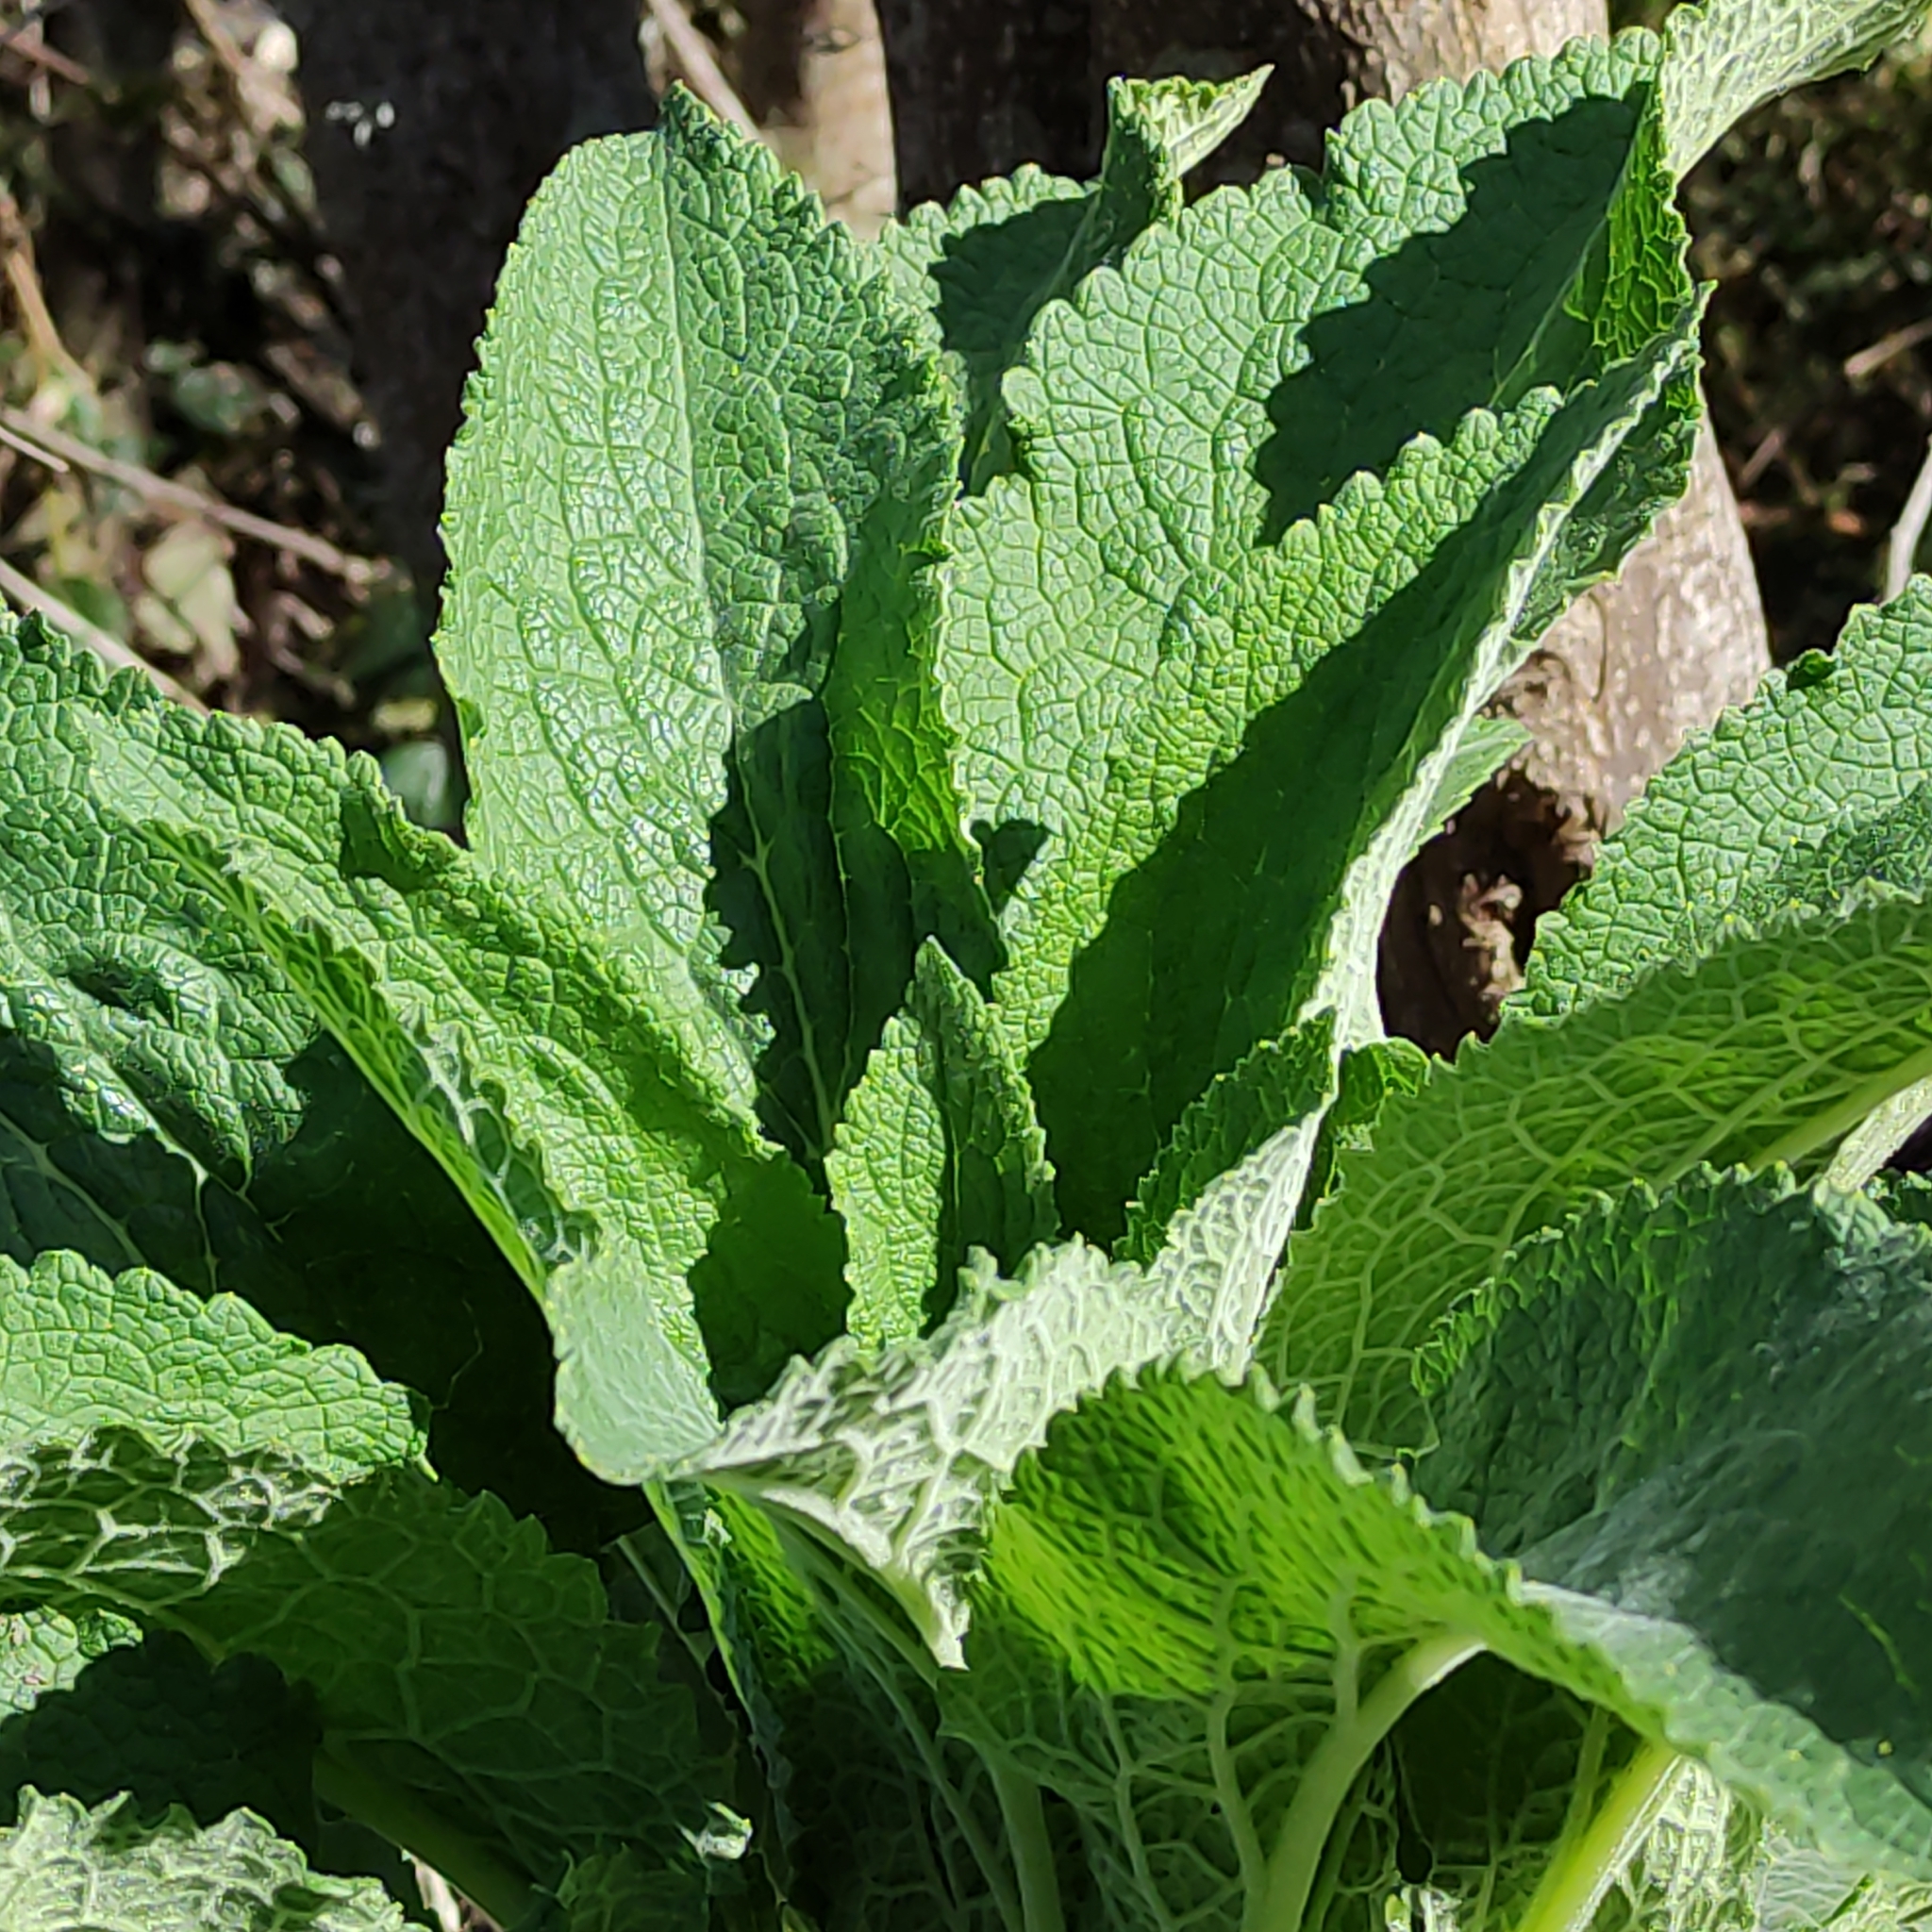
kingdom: Plantae
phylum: Tracheophyta
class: Magnoliopsida
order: Lamiales
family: Plantaginaceae
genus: Digitalis
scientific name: Digitalis purpurea
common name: Foxglove
